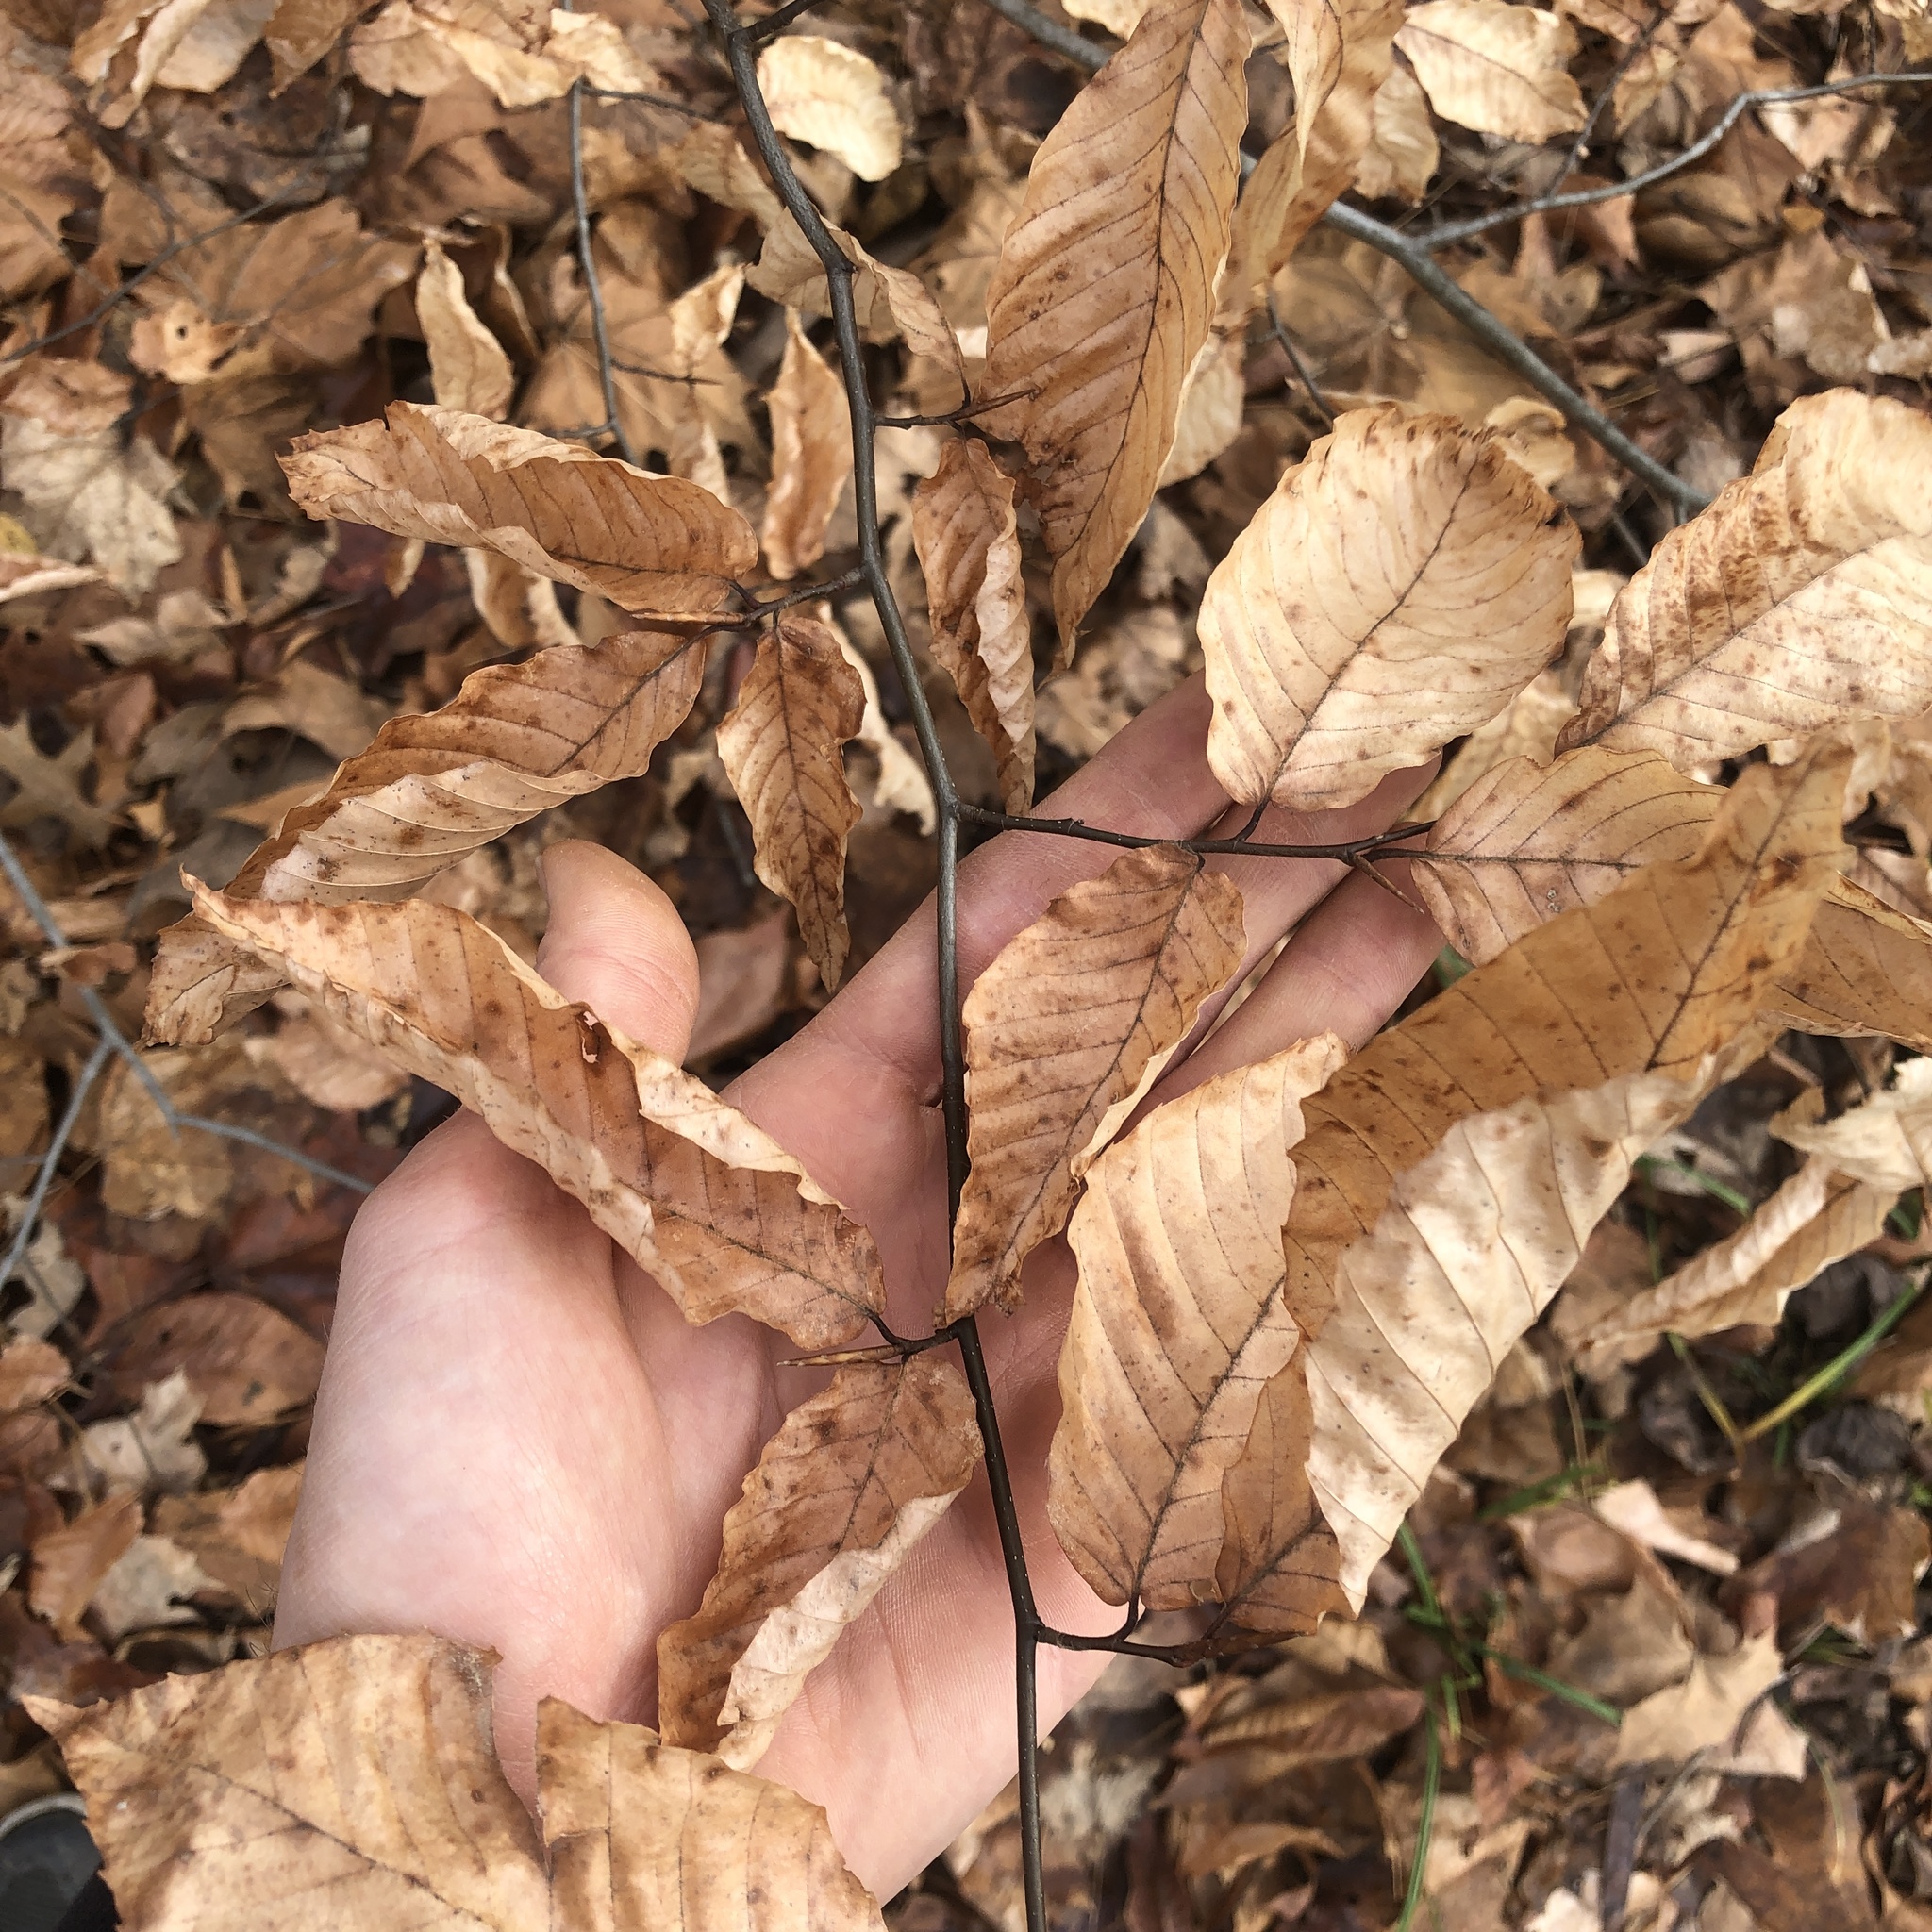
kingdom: Plantae
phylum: Tracheophyta
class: Magnoliopsida
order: Fagales
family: Fagaceae
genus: Fagus
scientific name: Fagus grandifolia
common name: American beech
